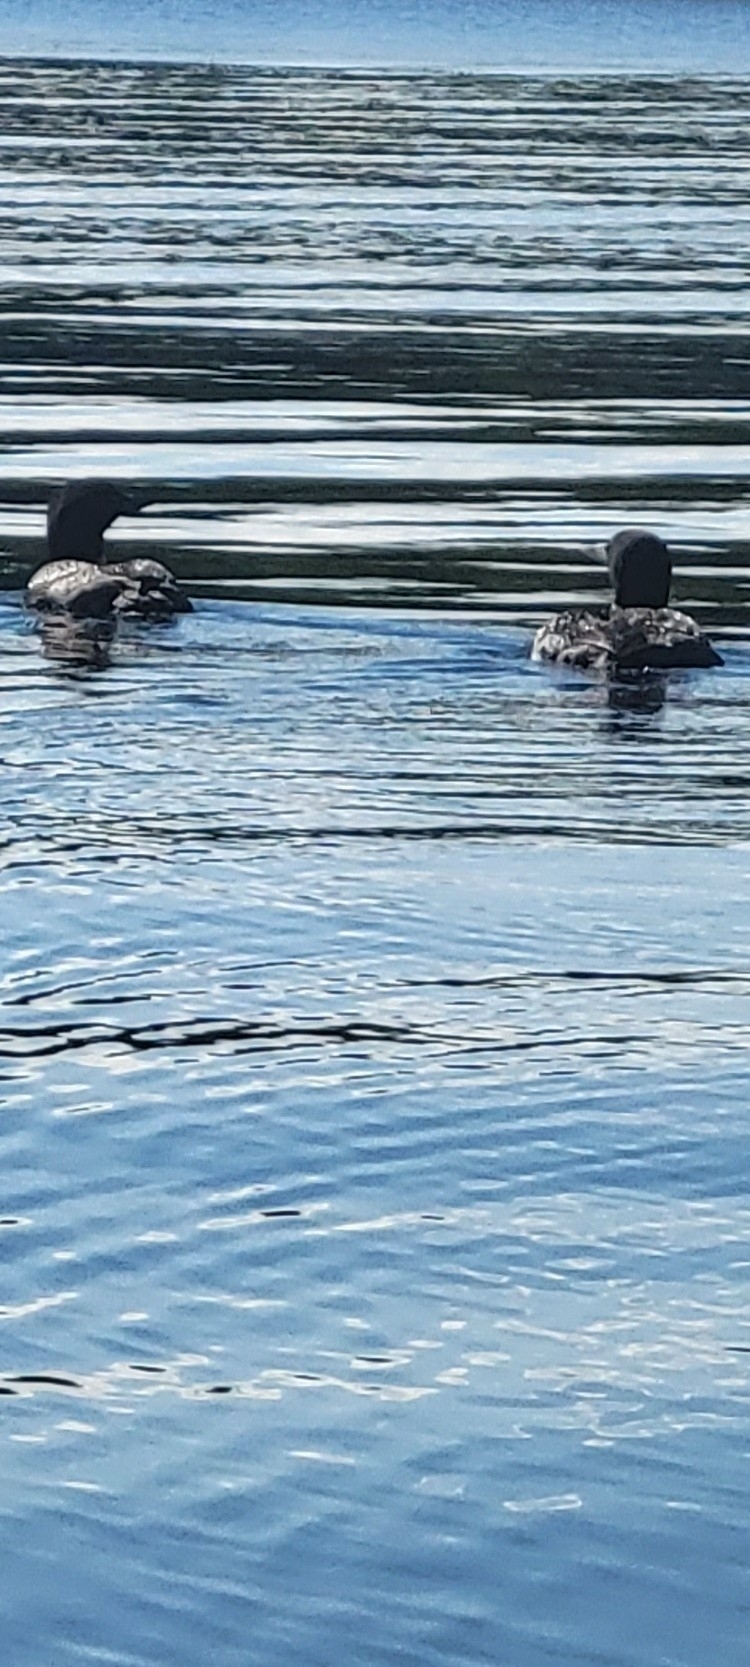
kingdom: Animalia
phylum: Chordata
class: Aves
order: Gaviiformes
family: Gaviidae
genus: Gavia
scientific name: Gavia immer
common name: Common loon
